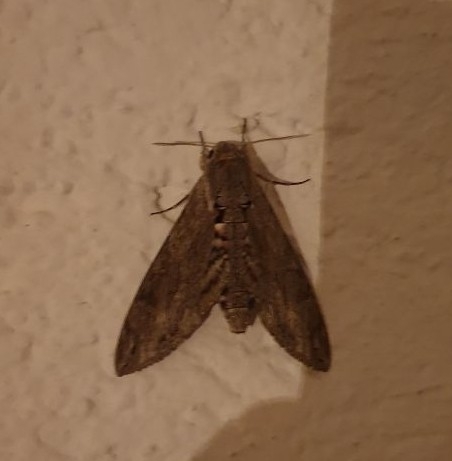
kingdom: Animalia
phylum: Arthropoda
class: Insecta
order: Lepidoptera
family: Sphingidae
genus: Agrius
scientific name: Agrius convolvuli
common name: Convolvulus hawkmoth
